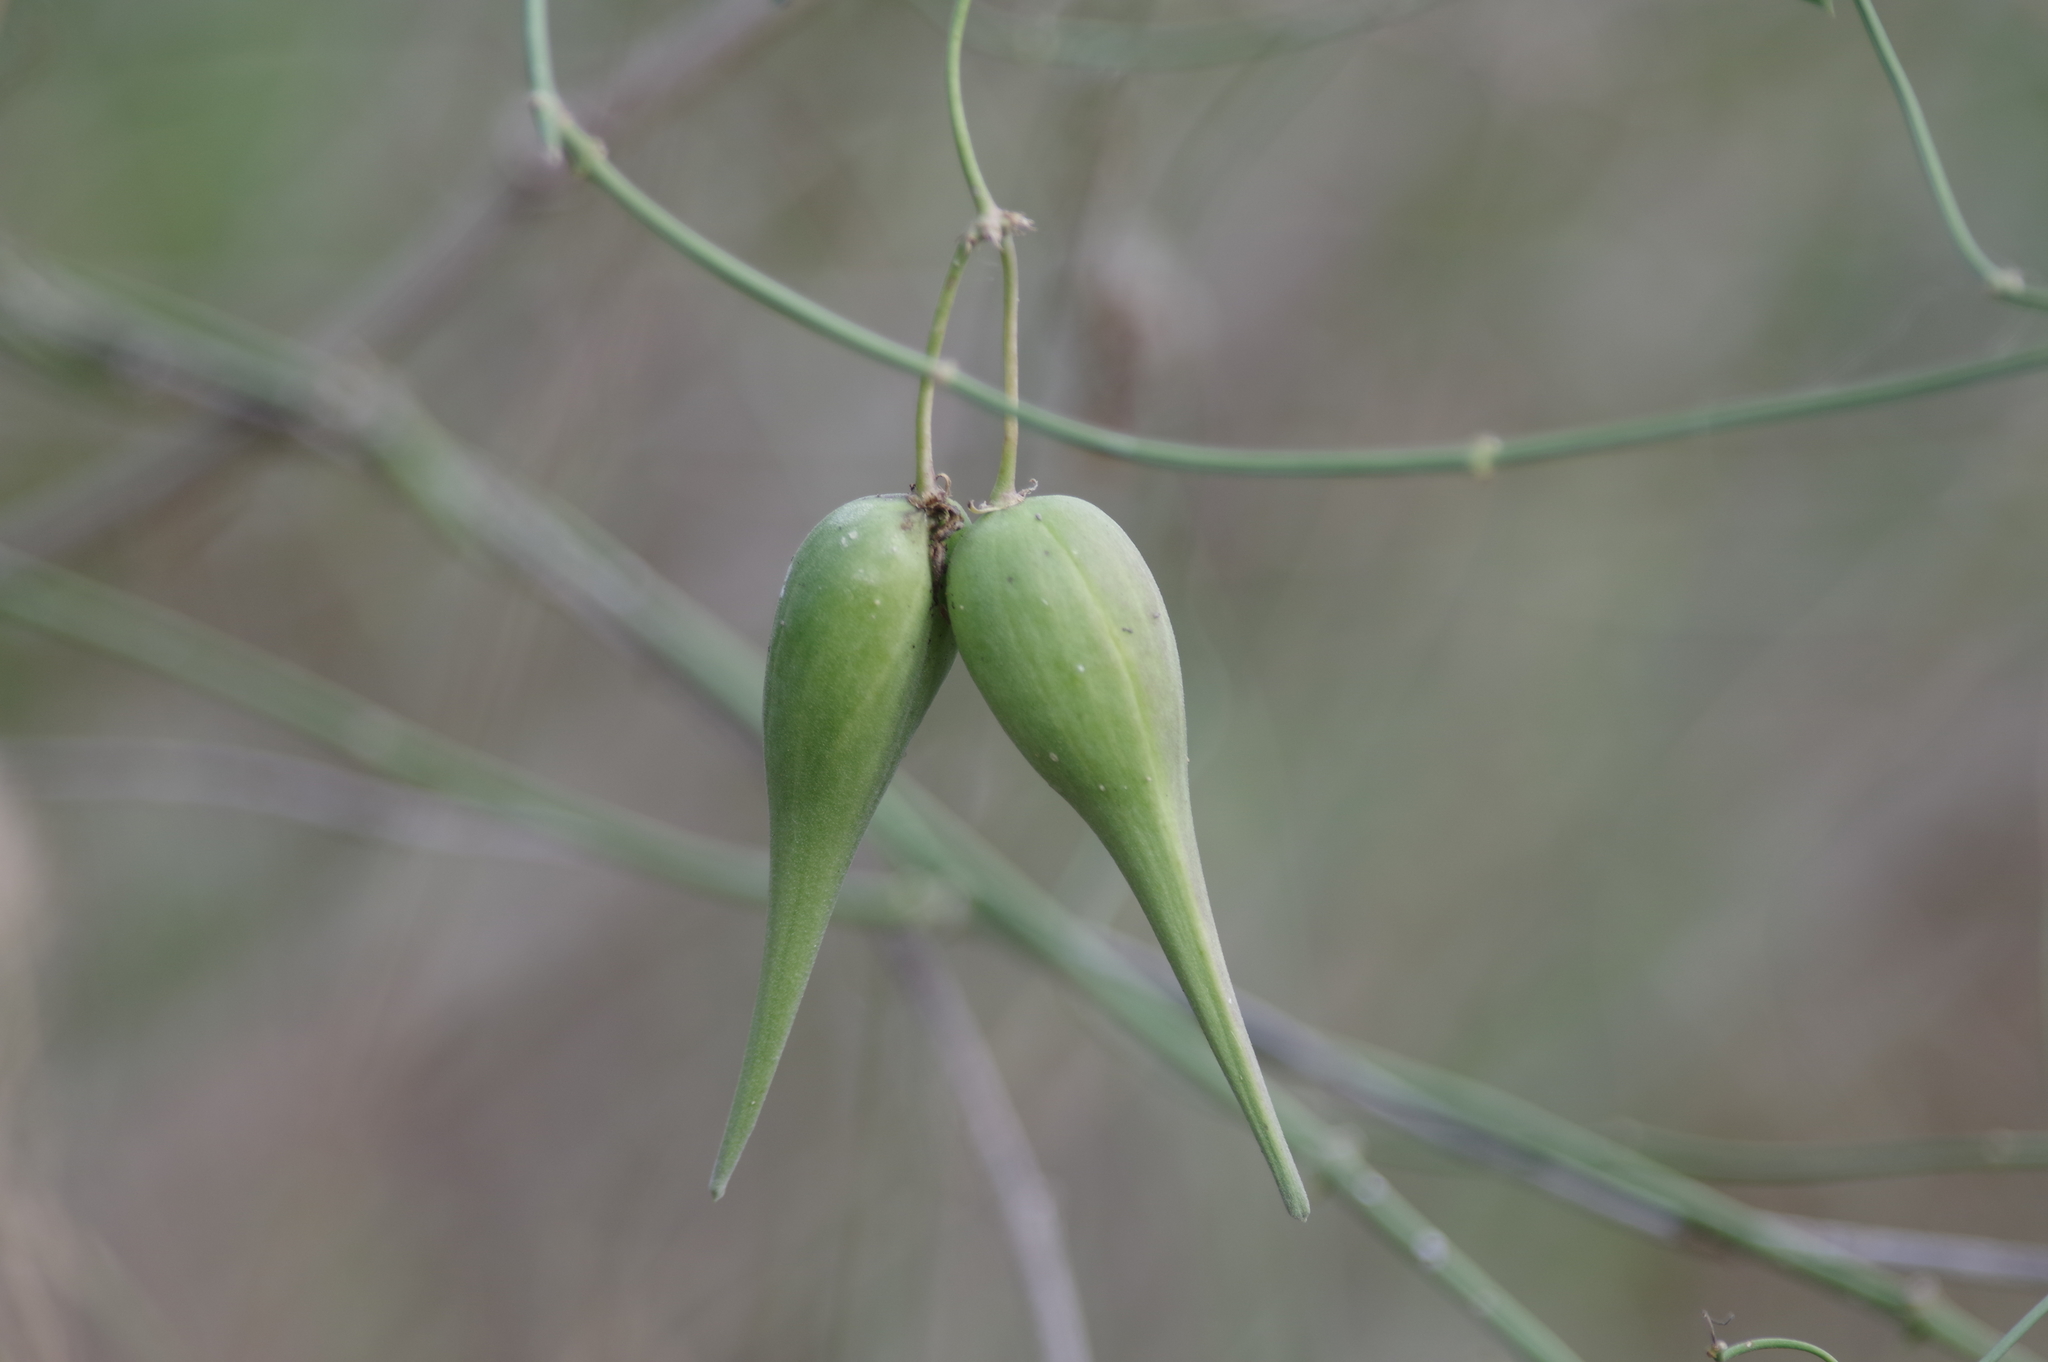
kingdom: Plantae
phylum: Tracheophyta
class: Magnoliopsida
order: Gentianales
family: Apocynaceae
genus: Funastrum
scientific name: Funastrum cynanchoides
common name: Climbing-milkweed
